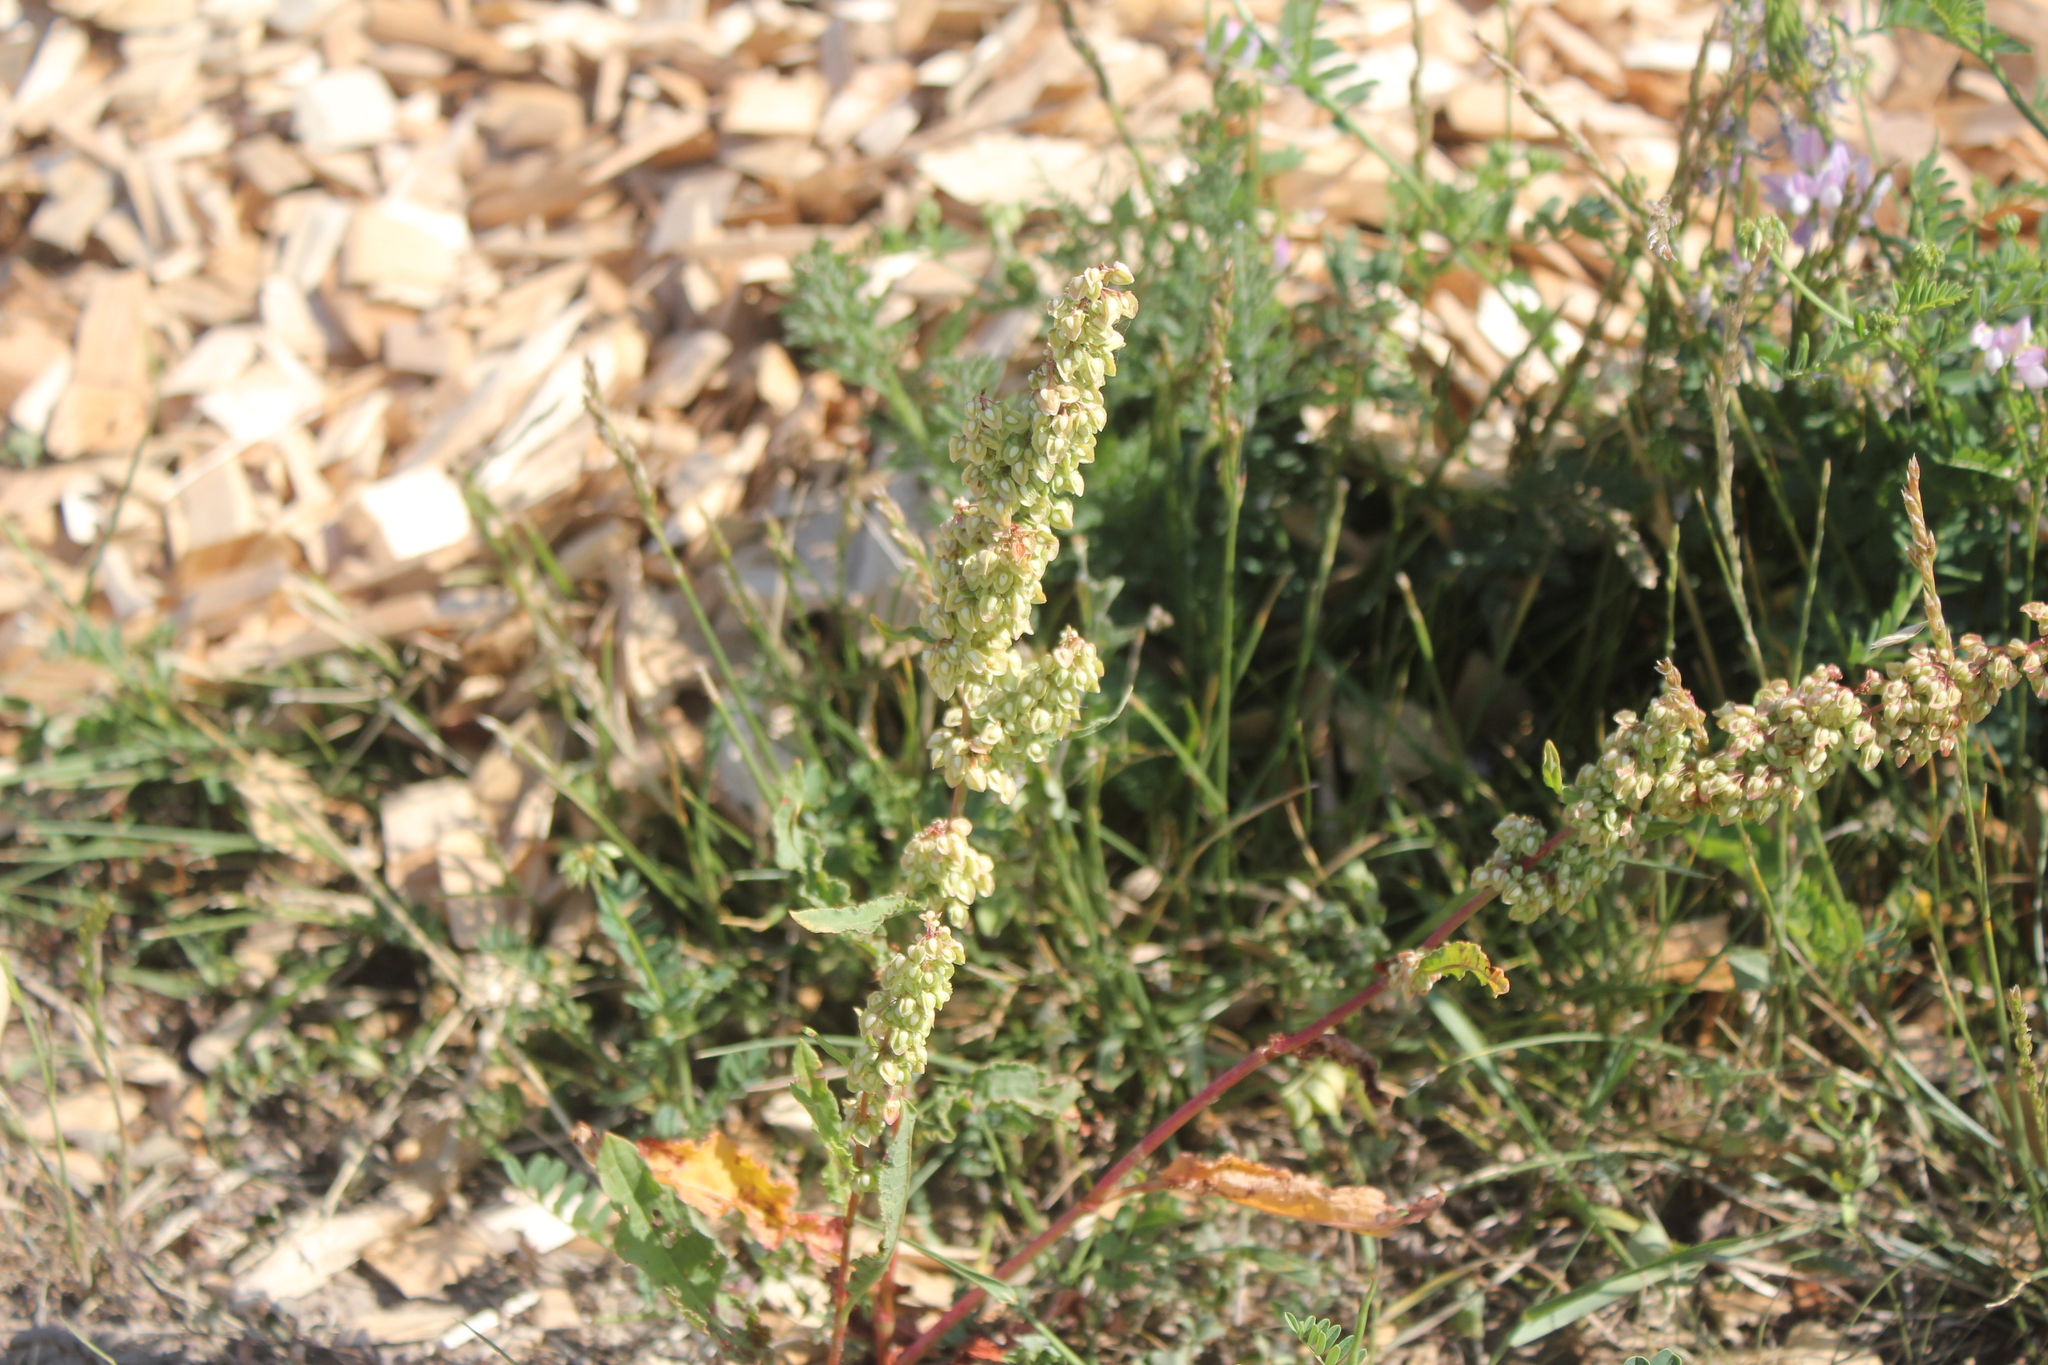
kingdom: Plantae
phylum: Tracheophyta
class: Magnoliopsida
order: Caryophyllales
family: Polygonaceae
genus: Rumex
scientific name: Rumex crispus
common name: Curled dock
